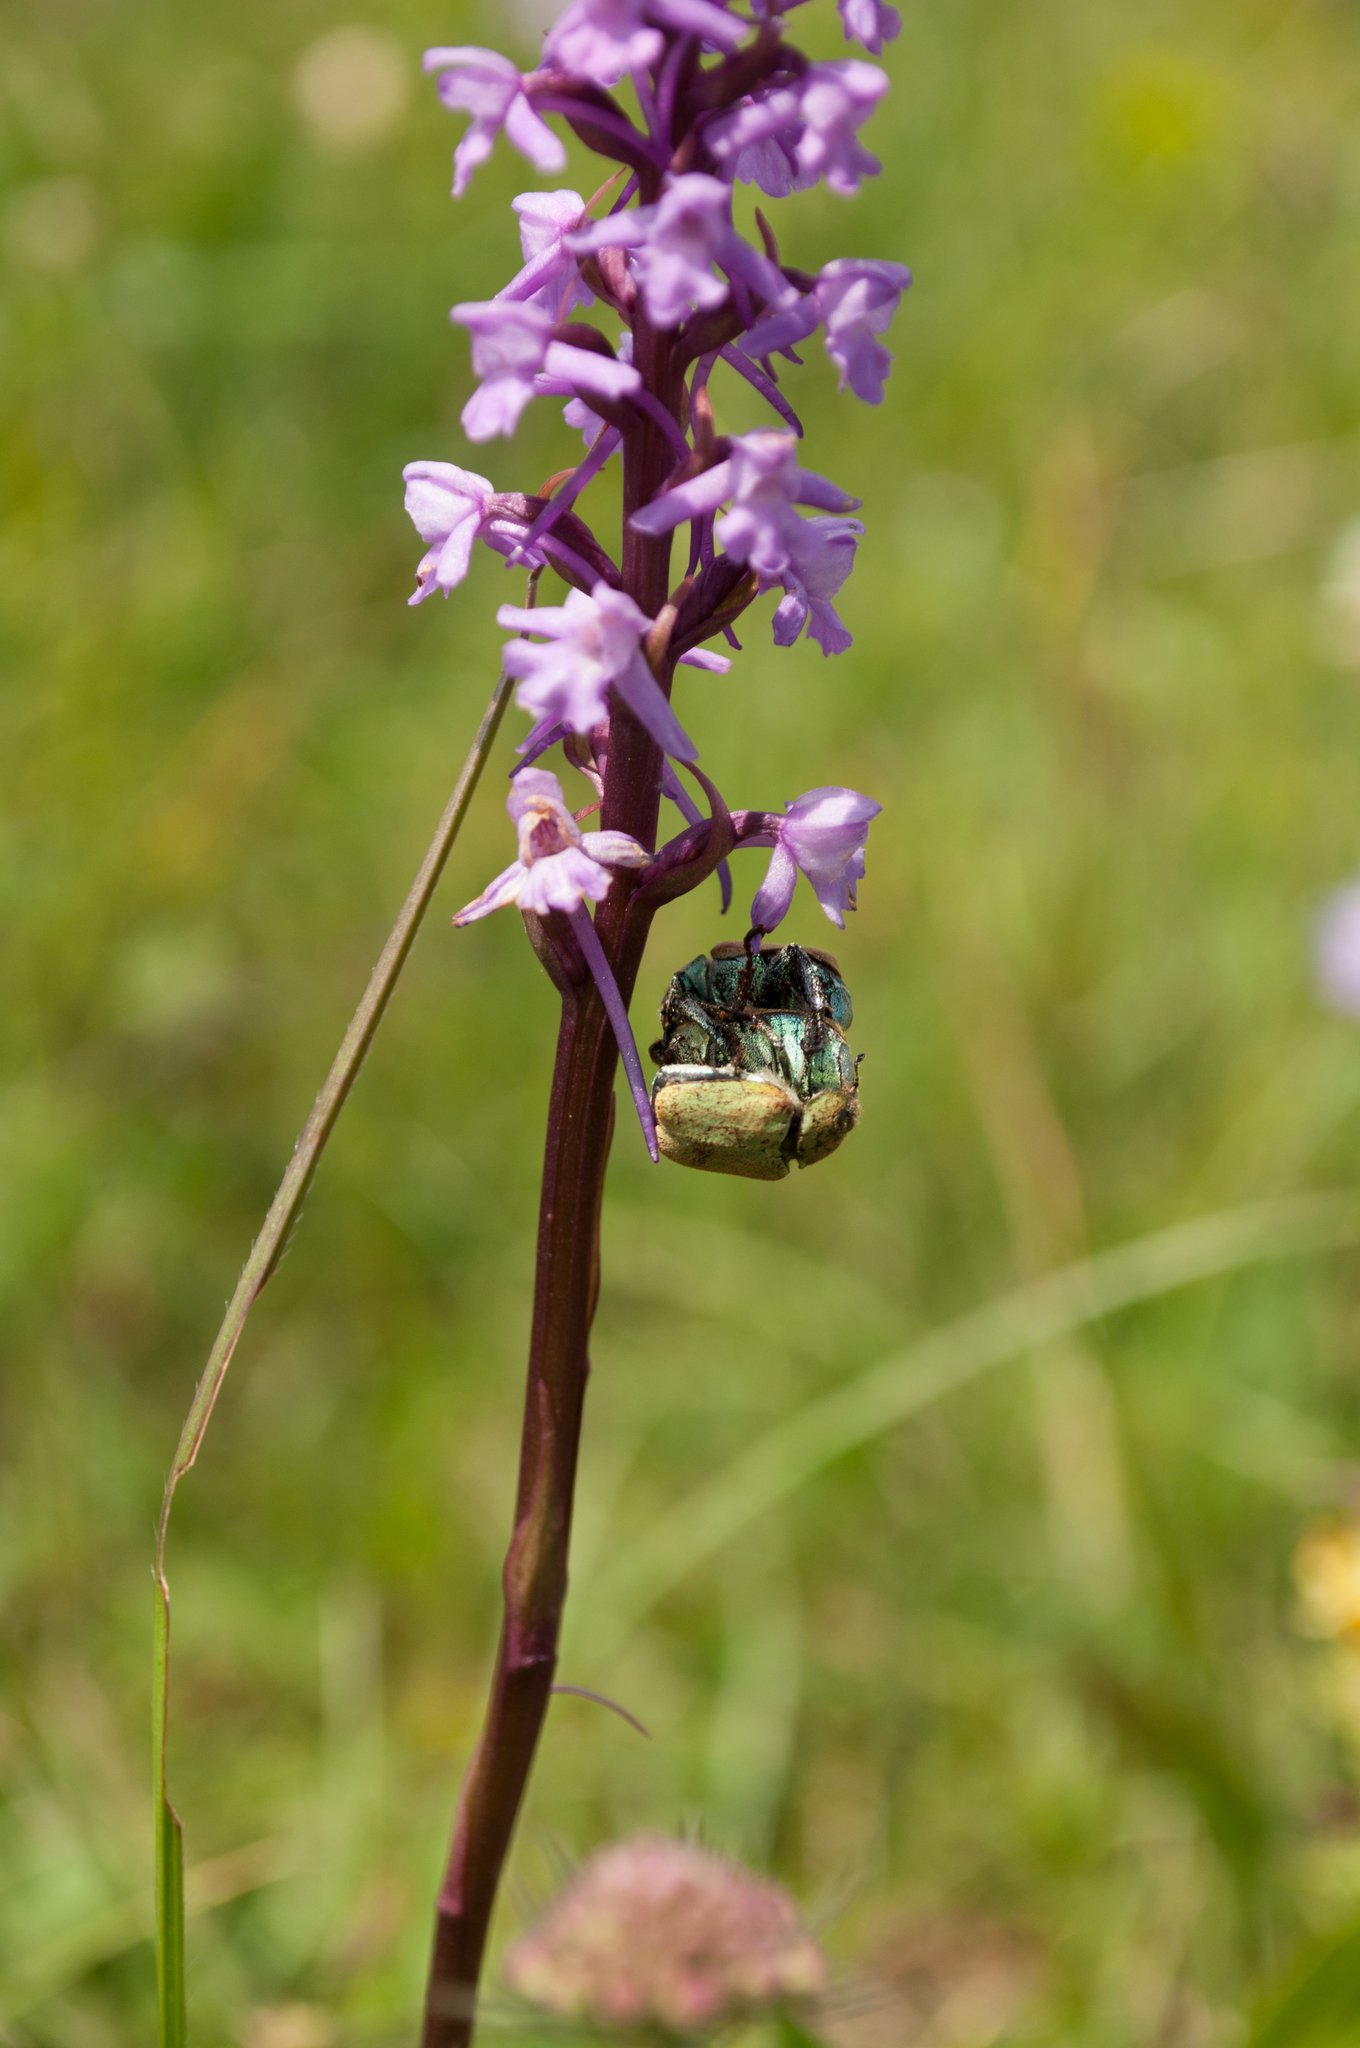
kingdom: Animalia
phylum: Arthropoda
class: Insecta
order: Coleoptera
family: Scarabaeidae
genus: Hoplia
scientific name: Hoplia argentea
